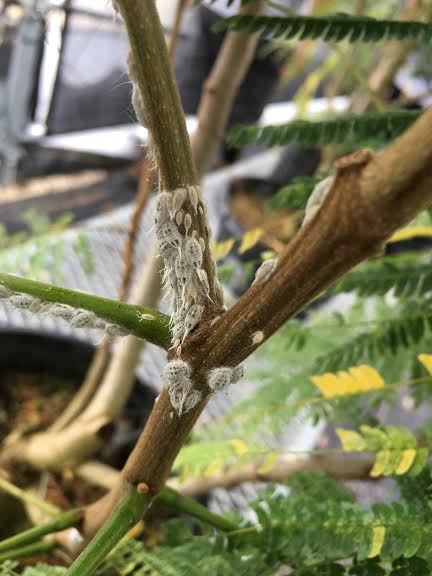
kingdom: Animalia
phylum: Arthropoda
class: Insecta
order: Hemiptera
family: Pseudococcidae
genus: Ferrisia
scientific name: Ferrisia virgata
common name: Striped mealy bug
